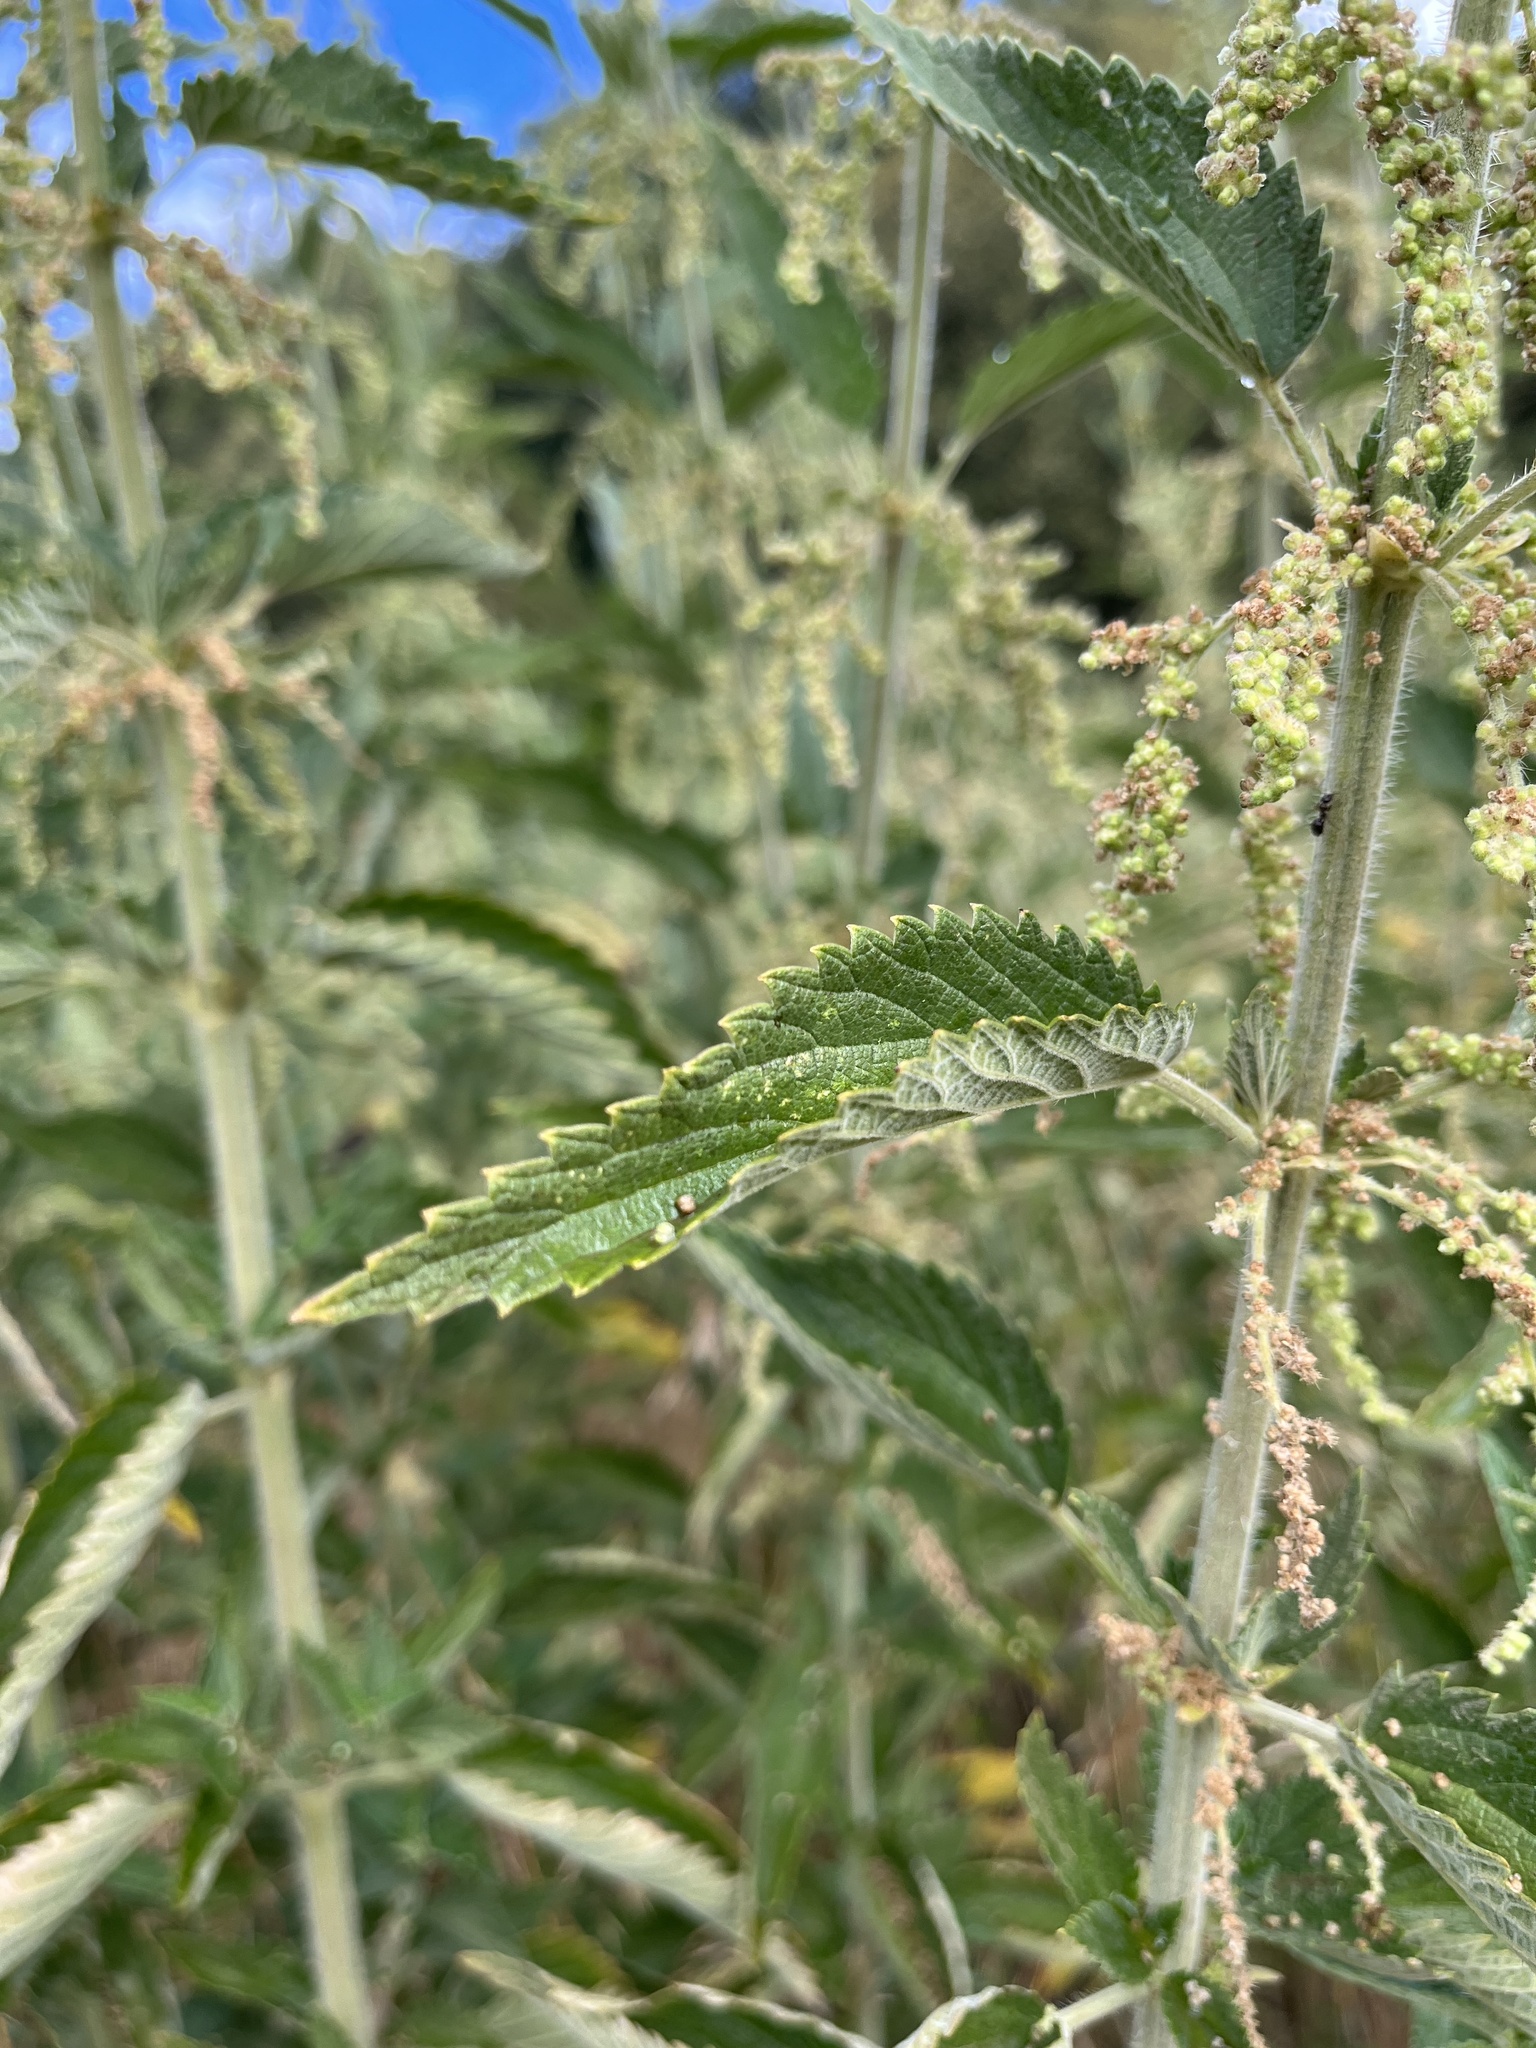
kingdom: Plantae
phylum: Tracheophyta
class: Magnoliopsida
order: Rosales
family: Urticaceae
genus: Urtica
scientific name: Urtica gracilis
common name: Slender stinging nettle
